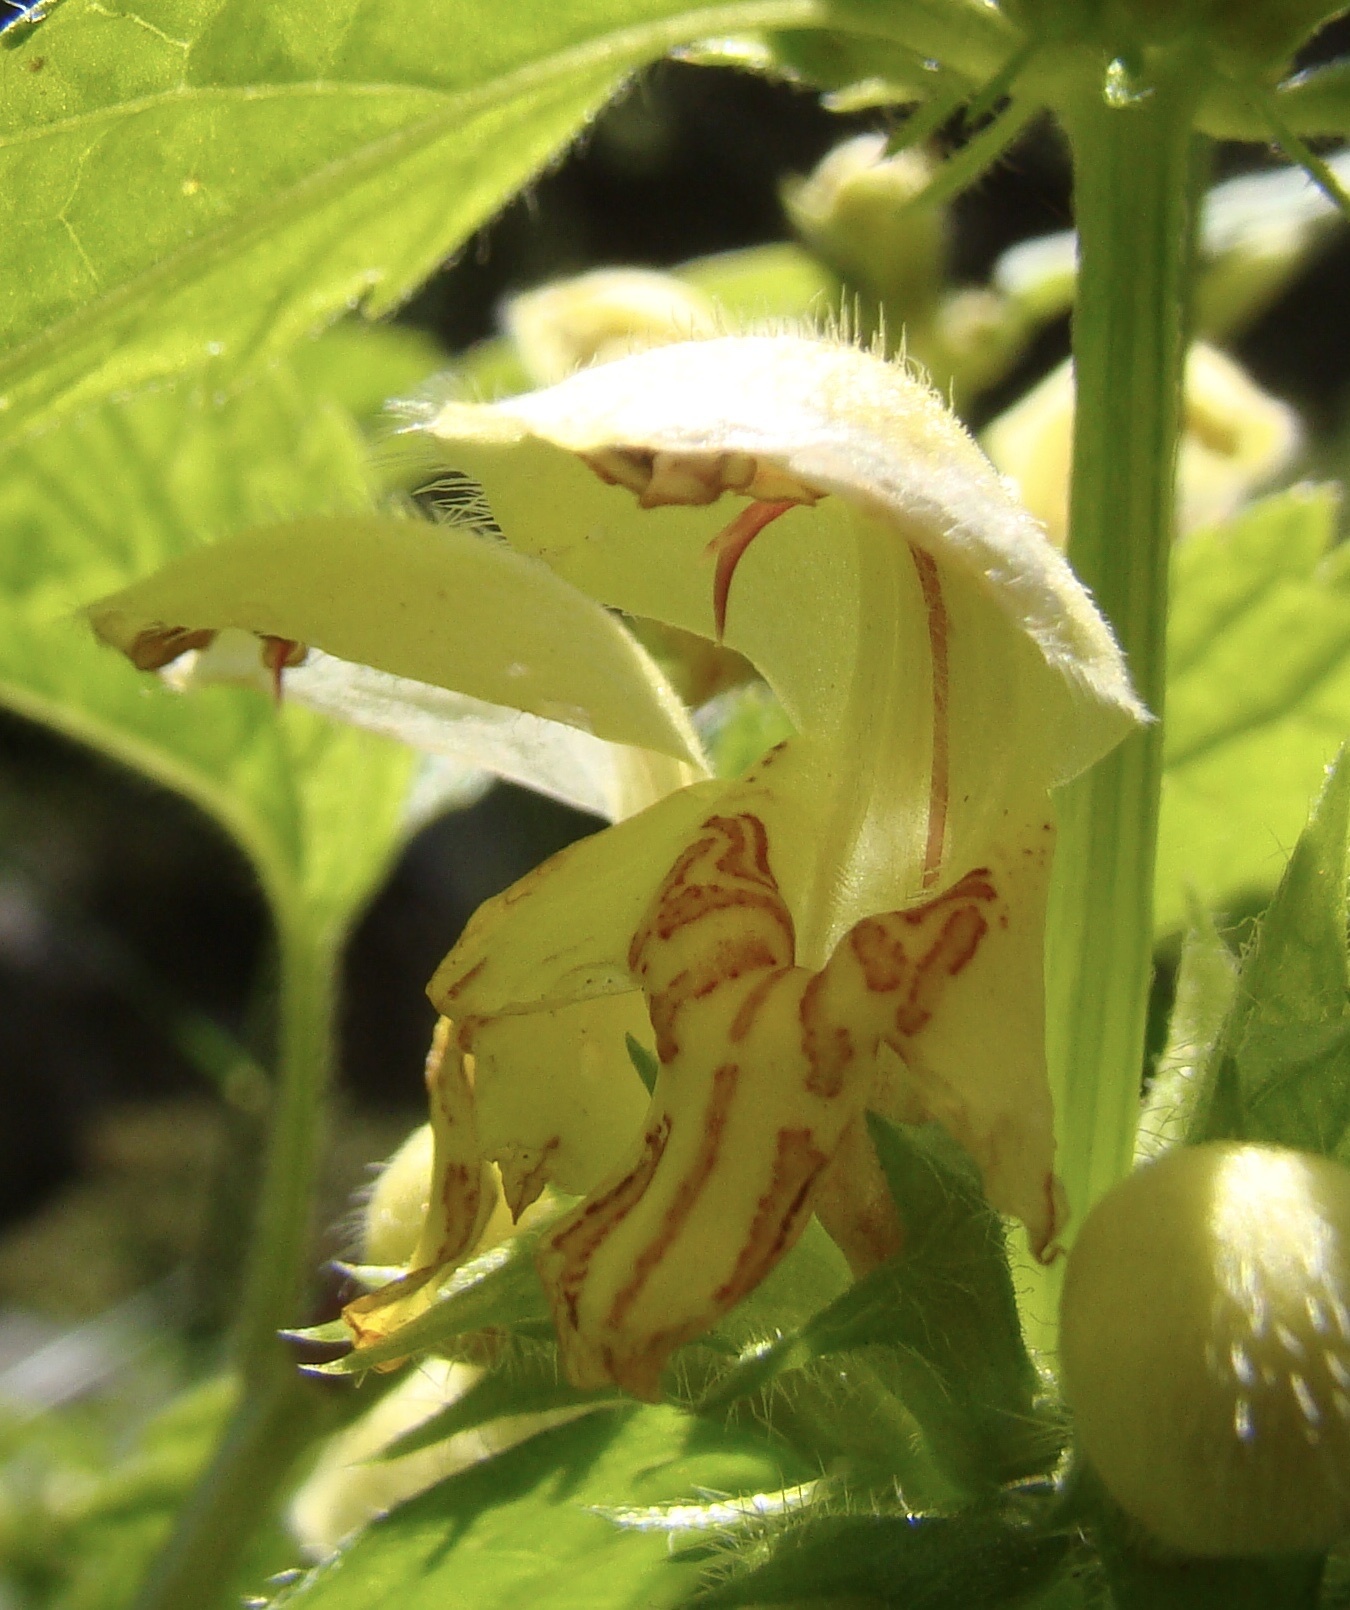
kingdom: Plantae
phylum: Tracheophyta
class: Magnoliopsida
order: Lamiales
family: Lamiaceae
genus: Lamium
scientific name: Lamium galeobdolon
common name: Yellow archangel
